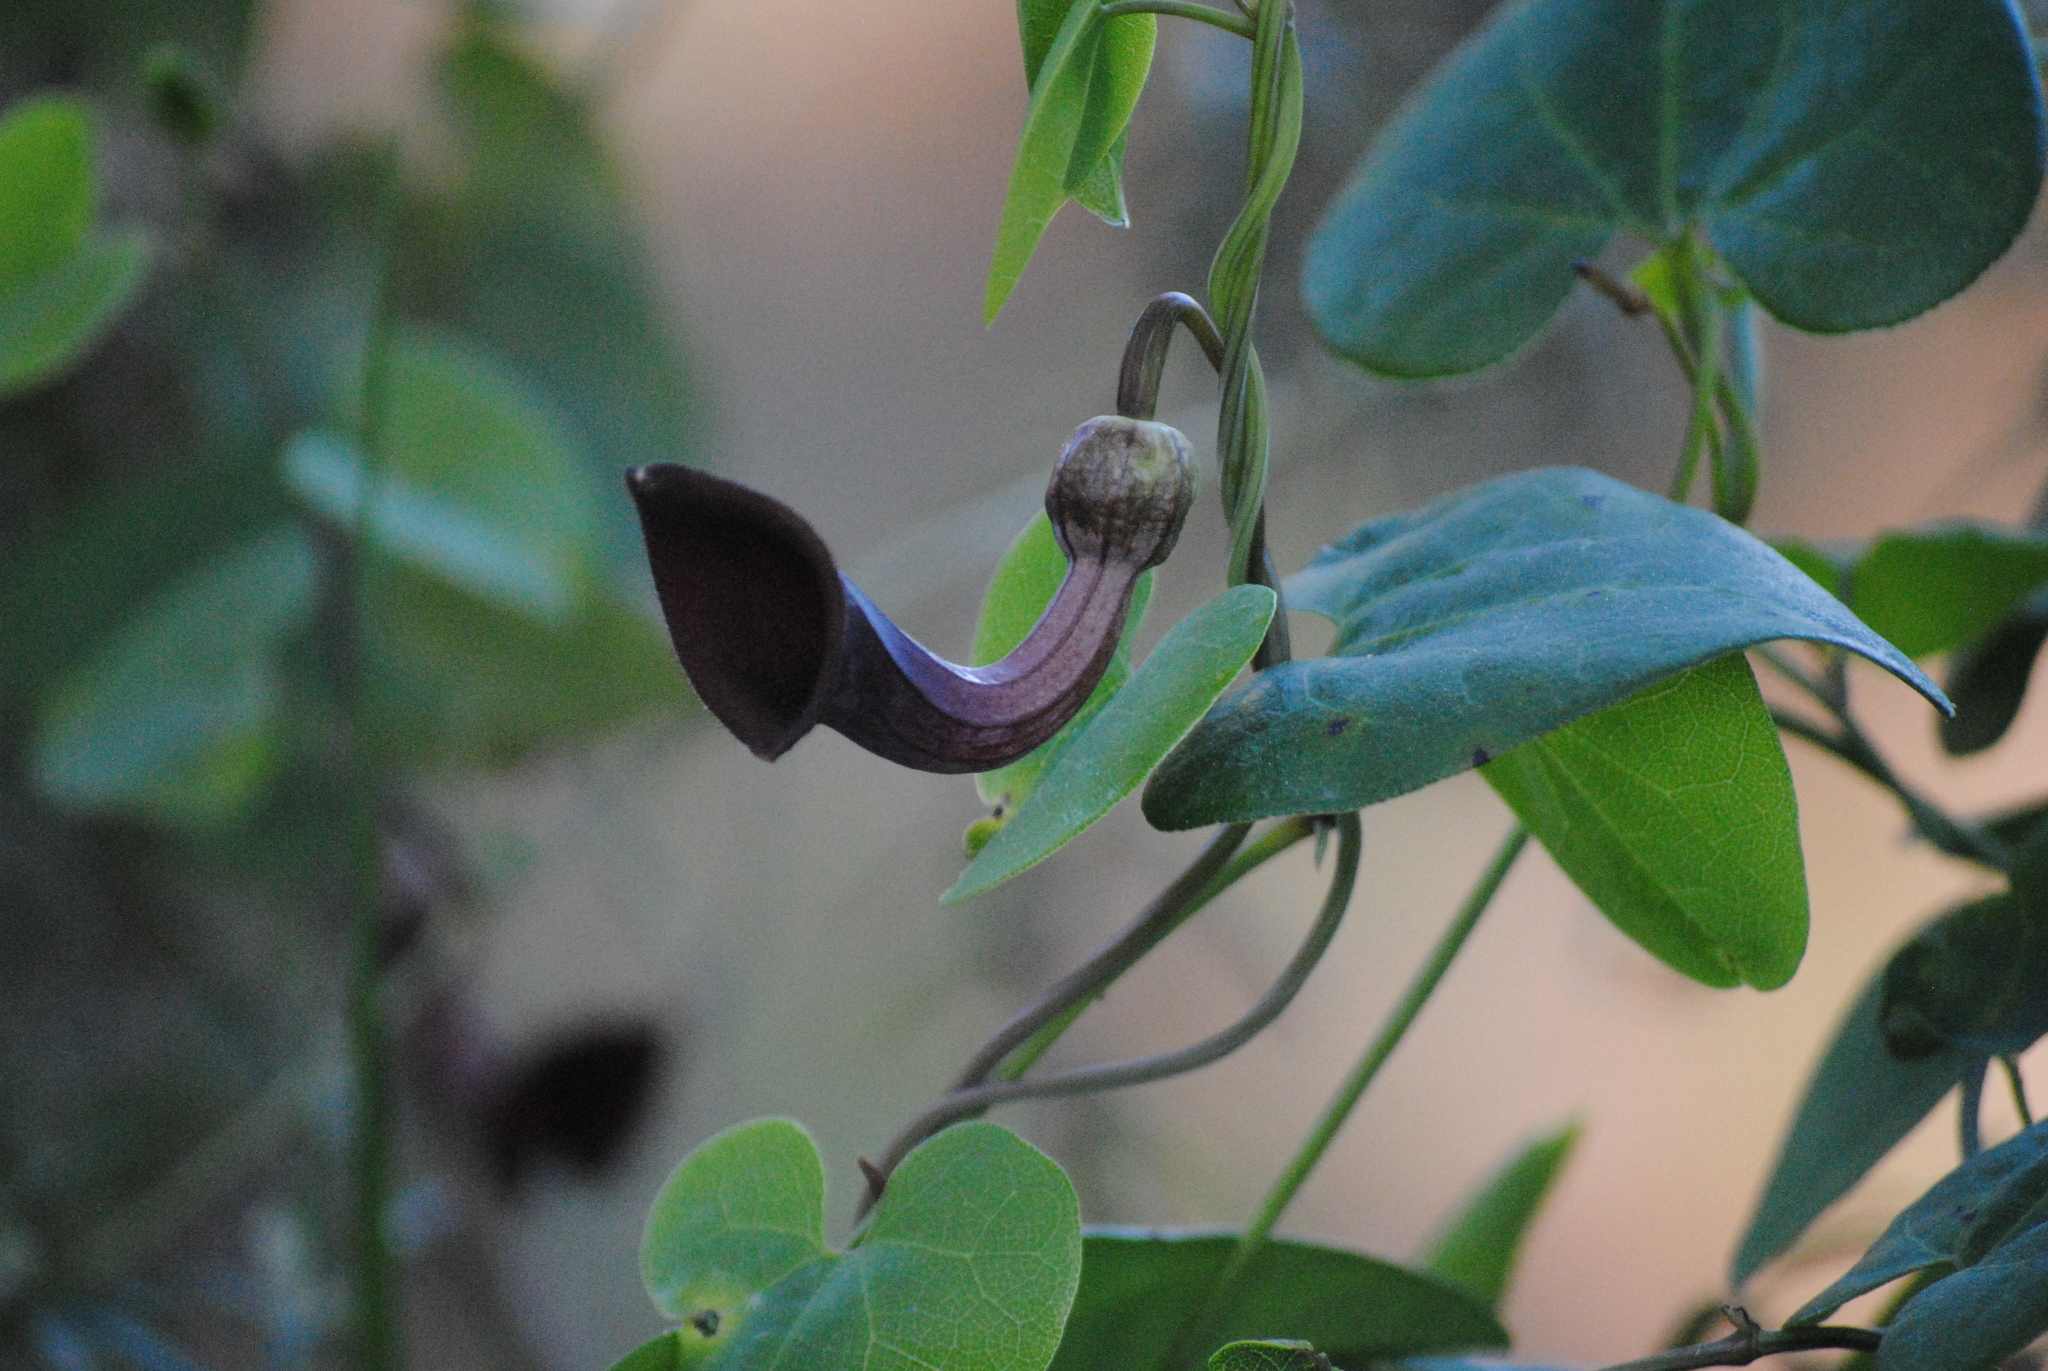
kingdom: Plantae
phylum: Tracheophyta
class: Magnoliopsida
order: Piperales
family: Aristolochiaceae
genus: Aristolochia
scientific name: Aristolochia baetica
